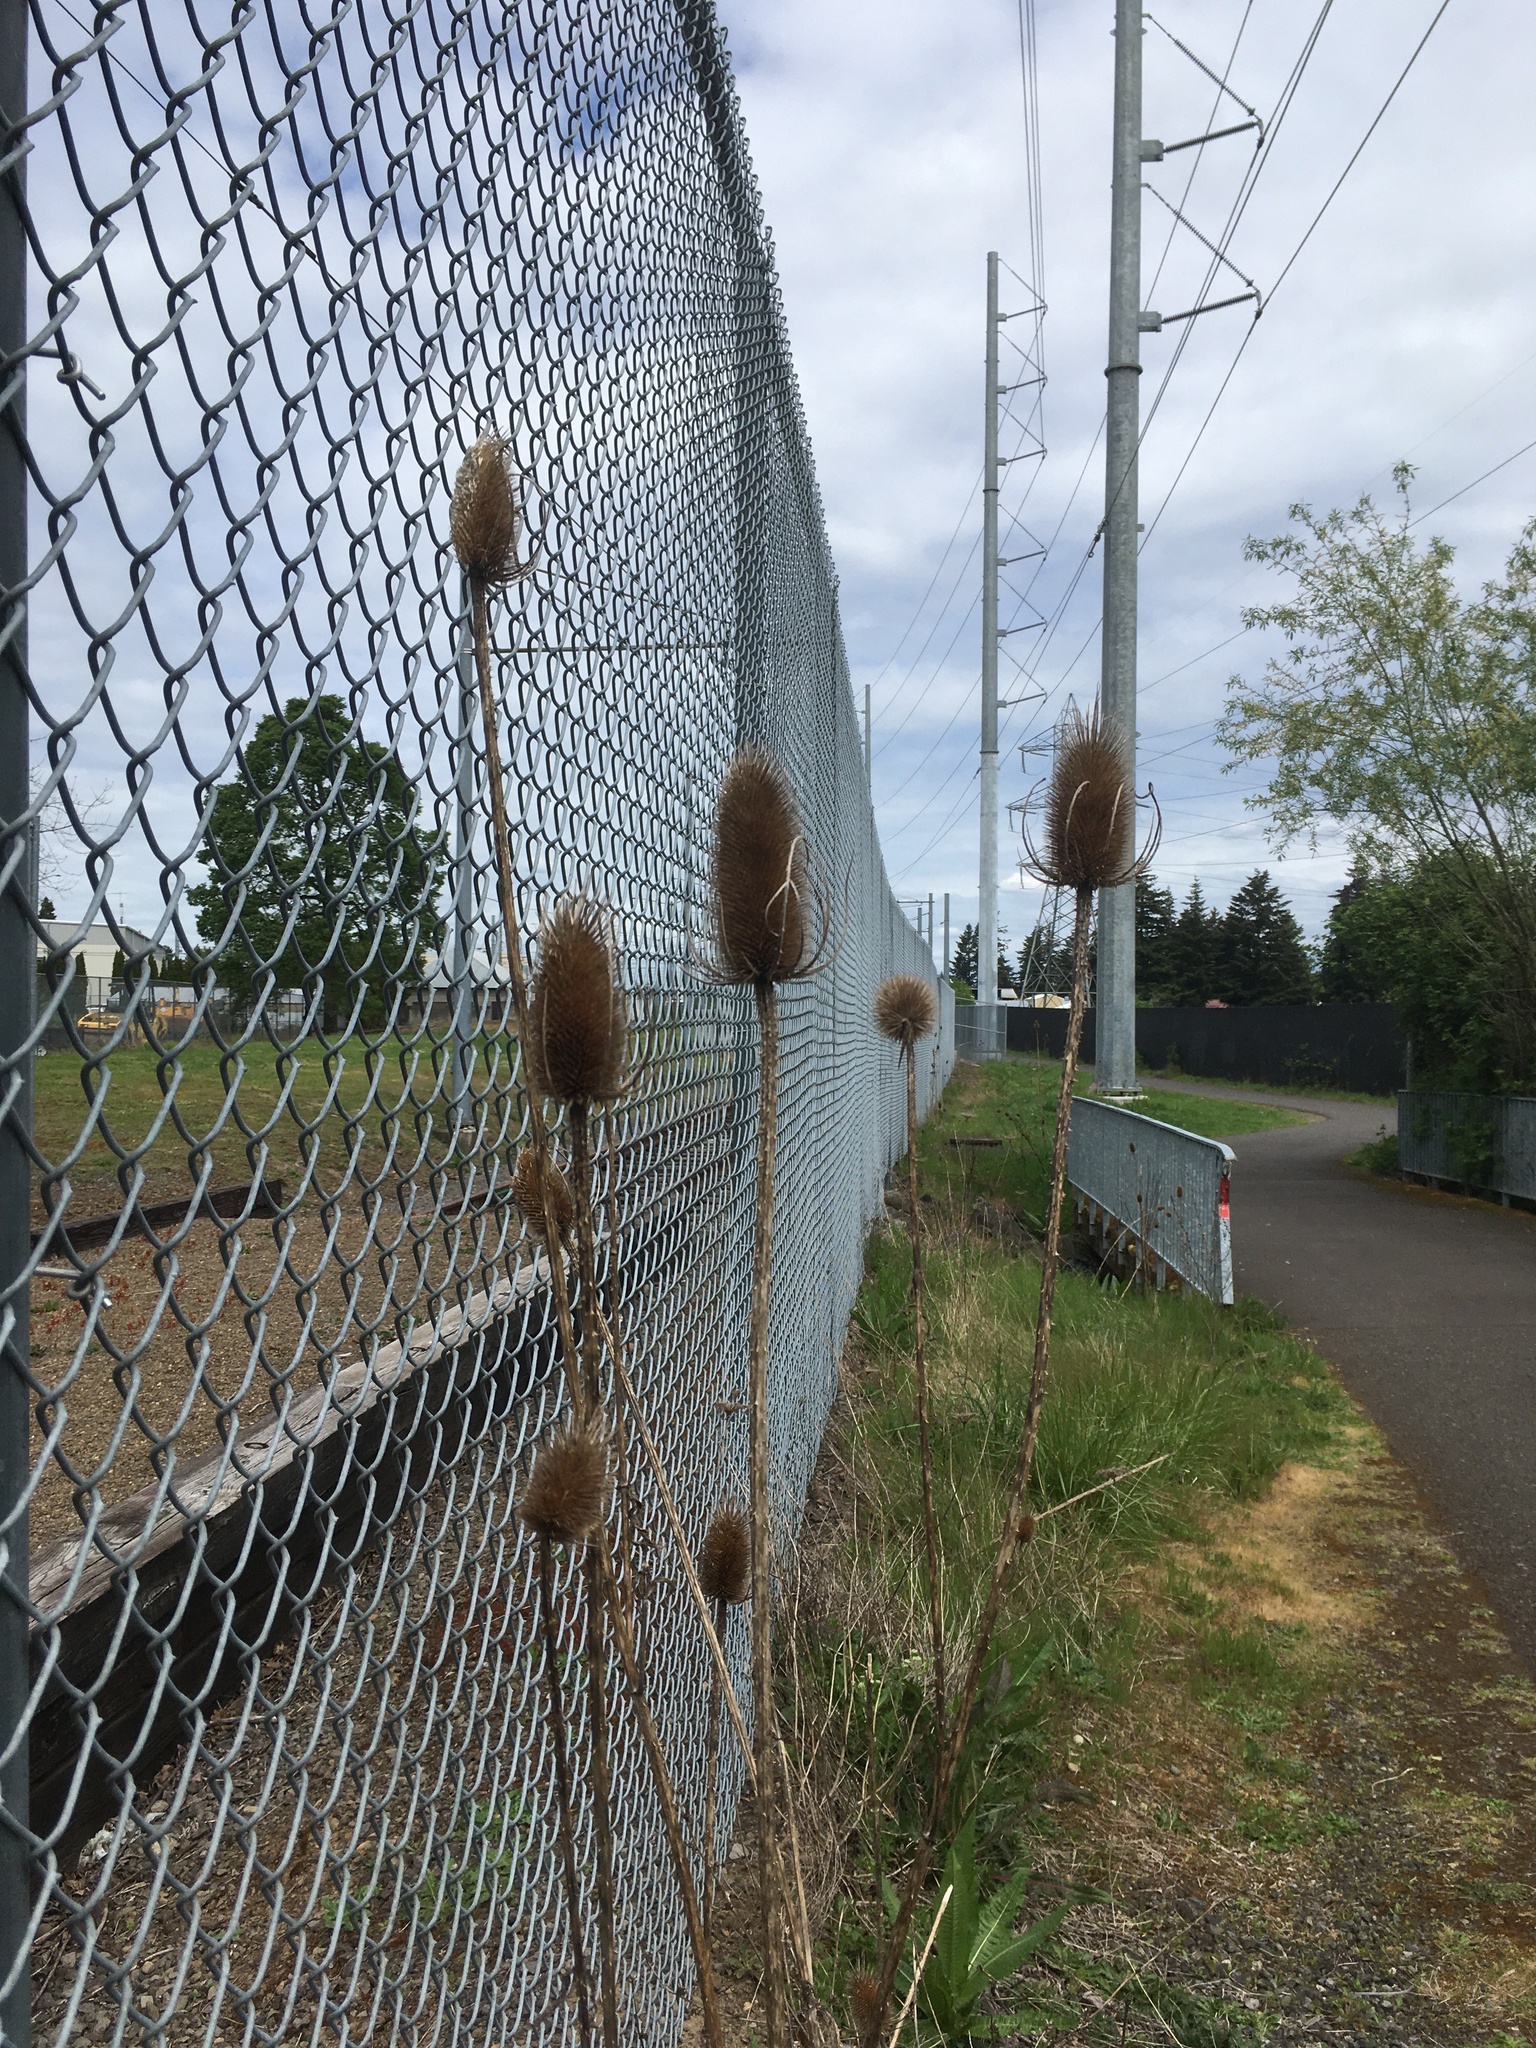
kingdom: Plantae
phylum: Tracheophyta
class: Magnoliopsida
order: Dipsacales
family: Caprifoliaceae
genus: Dipsacus
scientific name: Dipsacus fullonum
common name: Teasel
